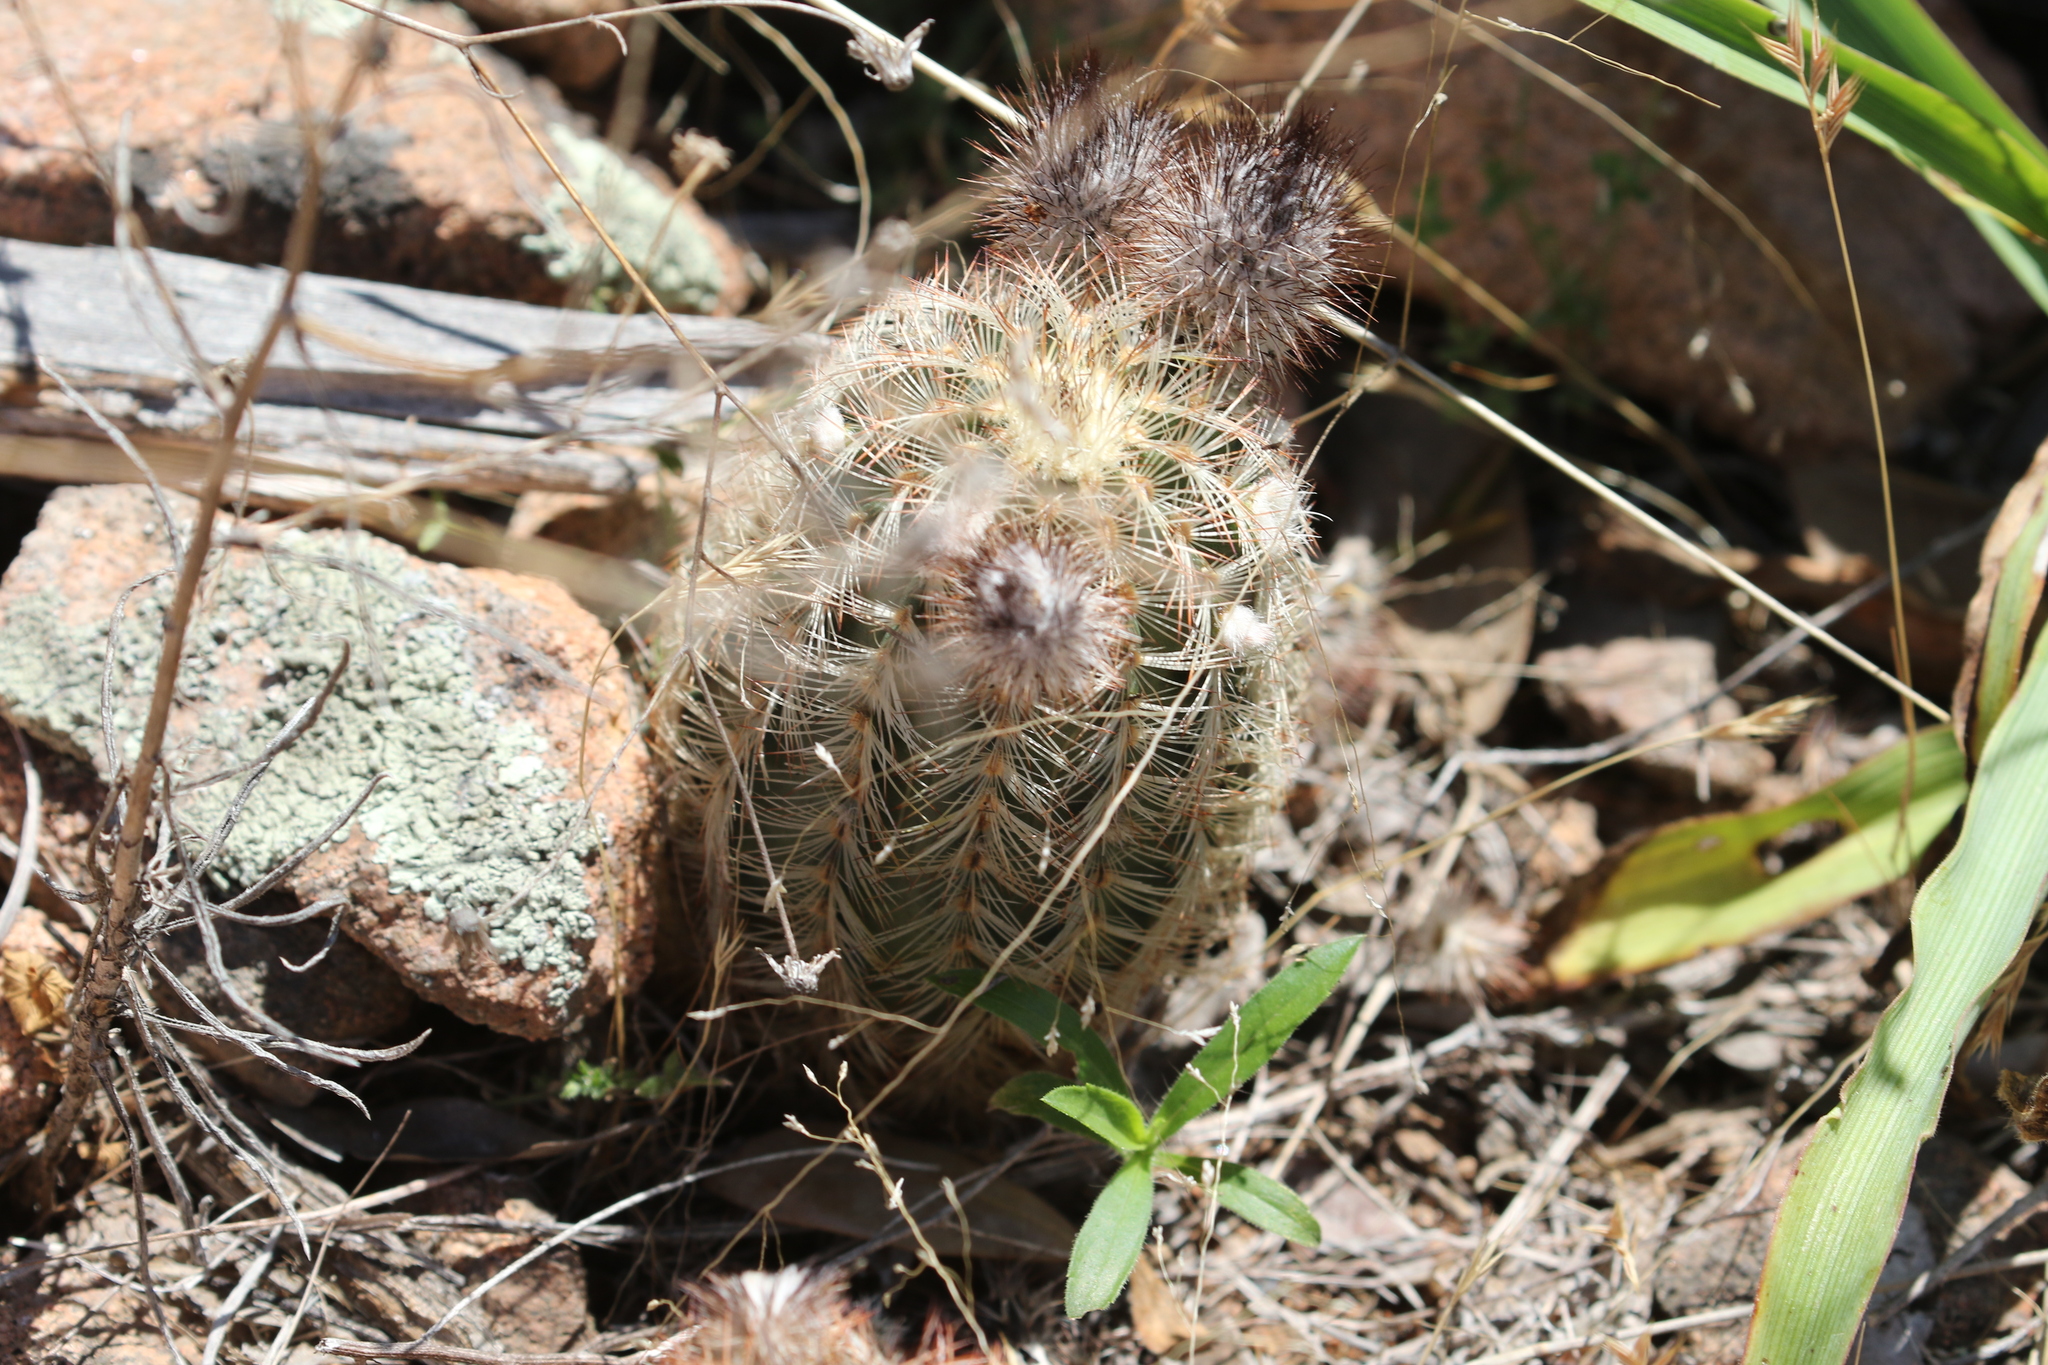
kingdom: Plantae
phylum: Tracheophyta
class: Magnoliopsida
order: Caryophyllales
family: Cactaceae
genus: Echinocereus
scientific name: Echinocereus reichenbachii
